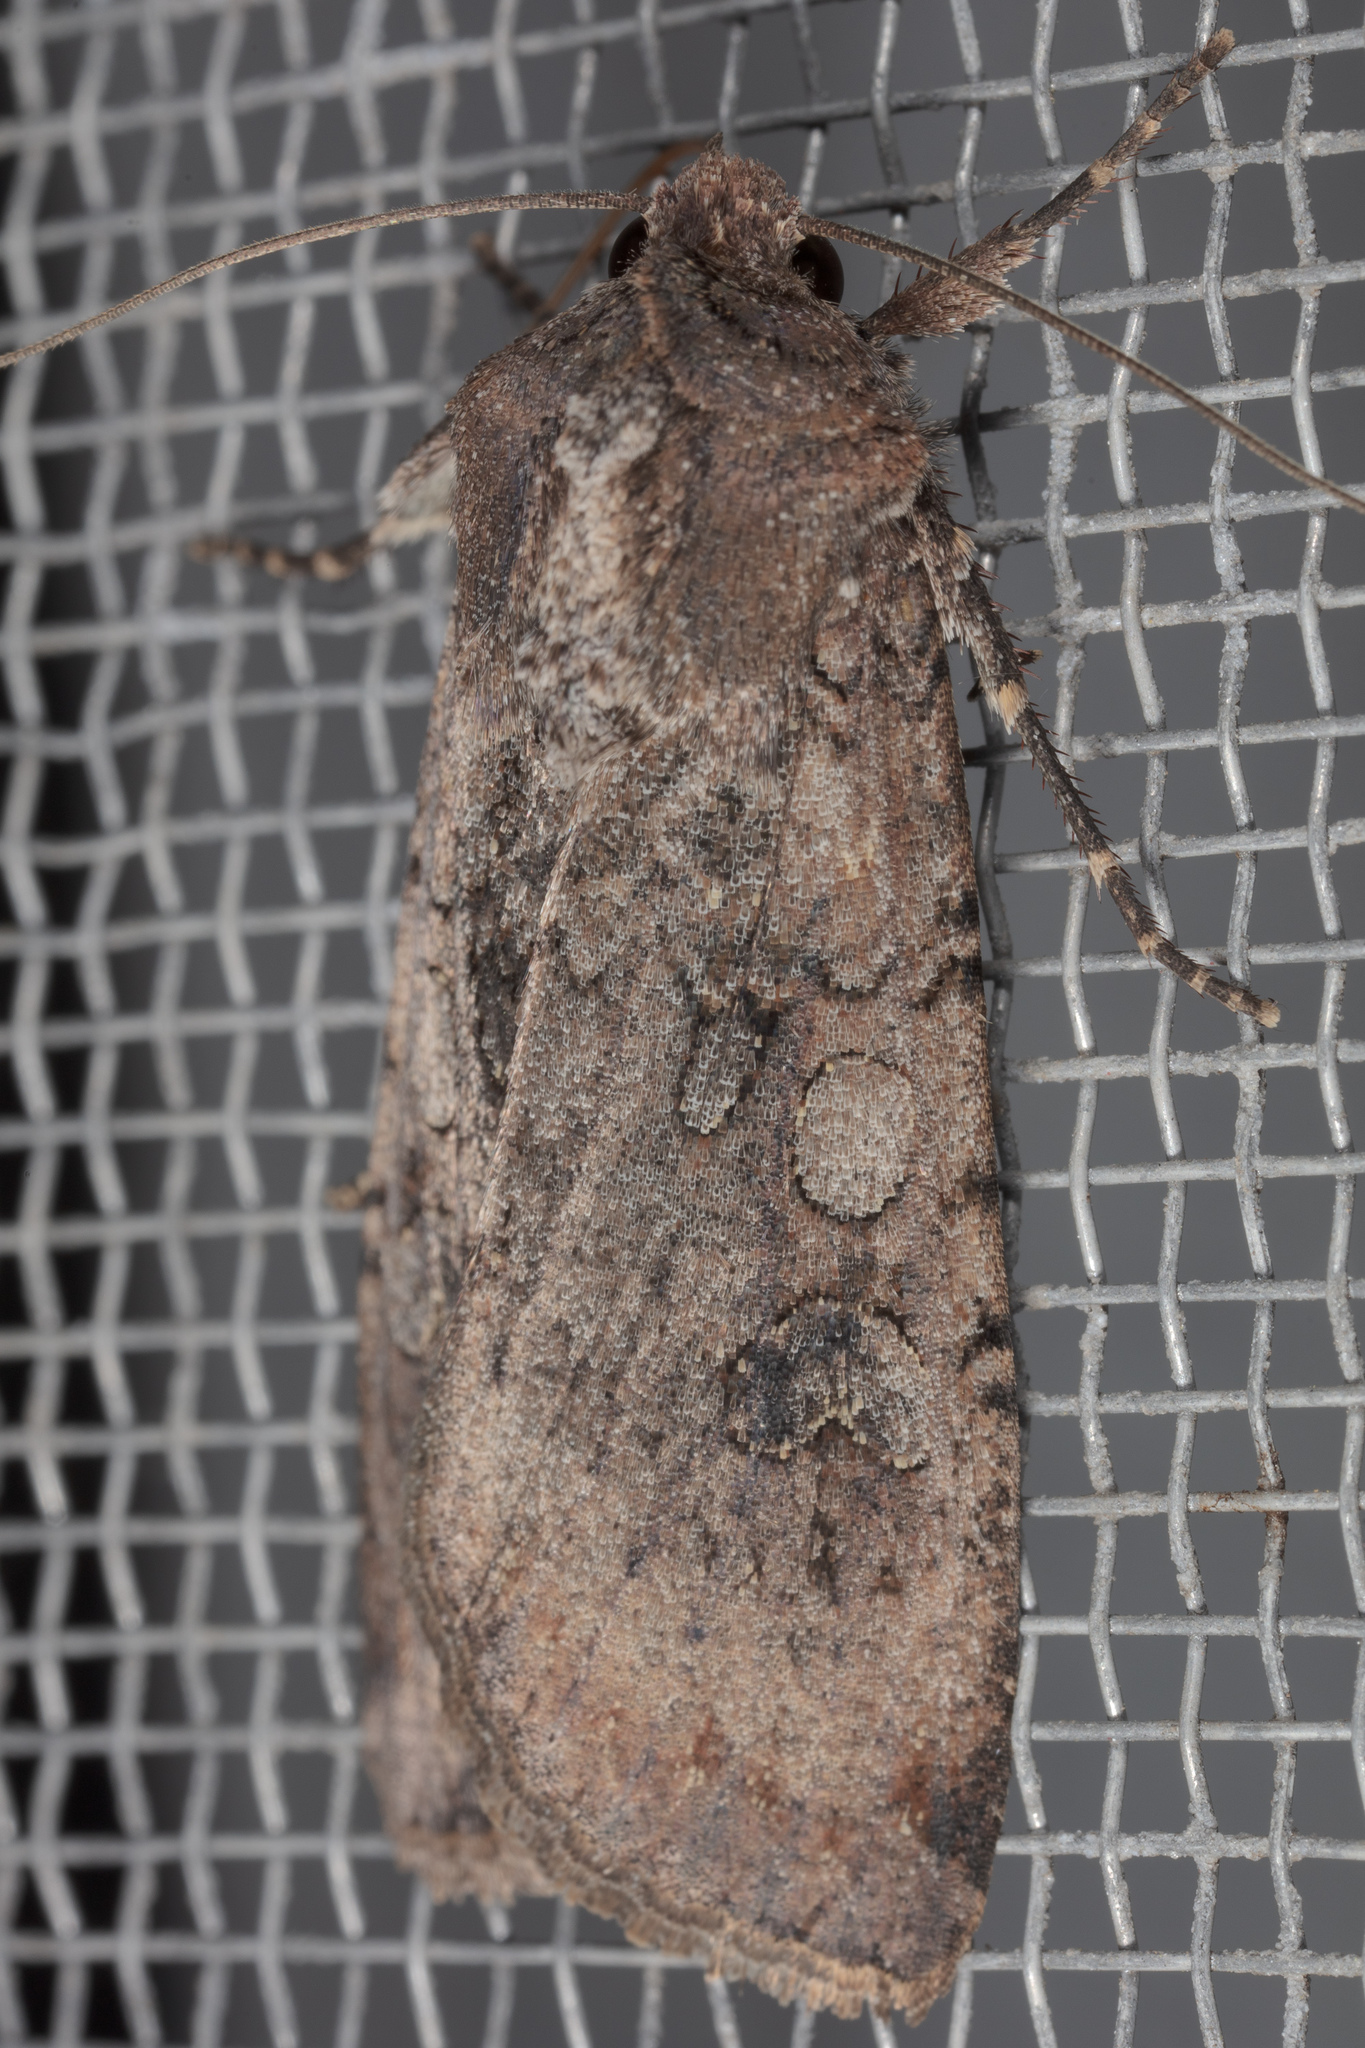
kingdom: Animalia
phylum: Arthropoda
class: Insecta
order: Lepidoptera
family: Noctuidae
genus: Peridroma
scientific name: Peridroma saucia
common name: Pearly underwing
